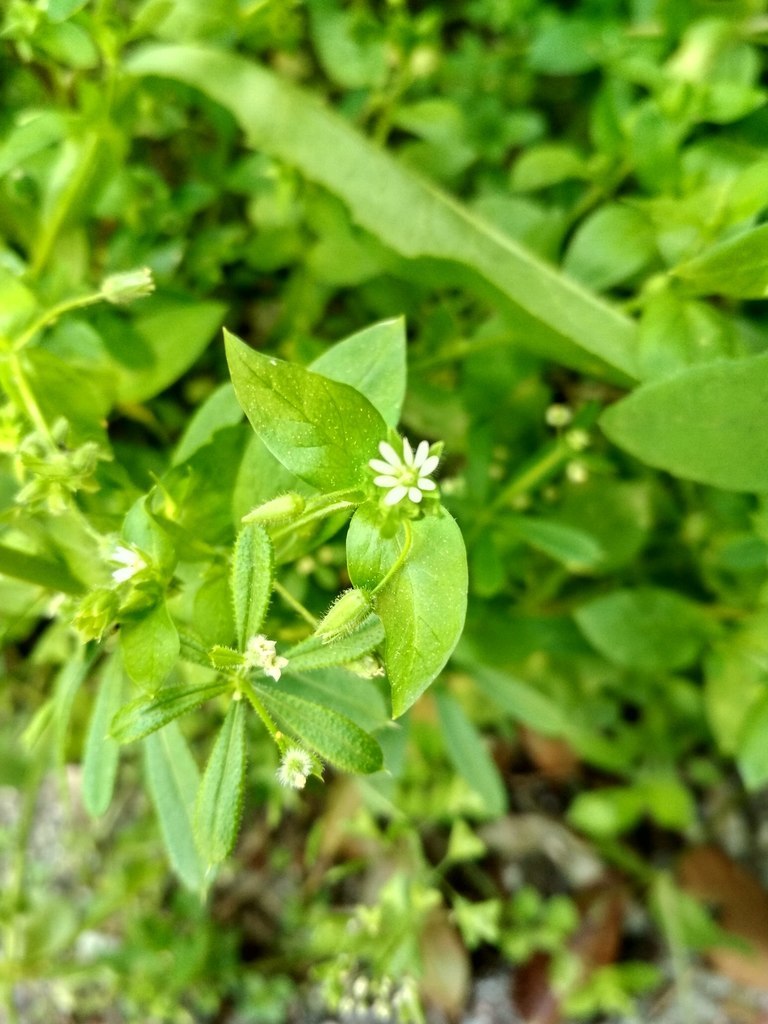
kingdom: Plantae
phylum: Tracheophyta
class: Magnoliopsida
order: Caryophyllales
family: Caryophyllaceae
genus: Stellaria
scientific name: Stellaria media
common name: Common chickweed
